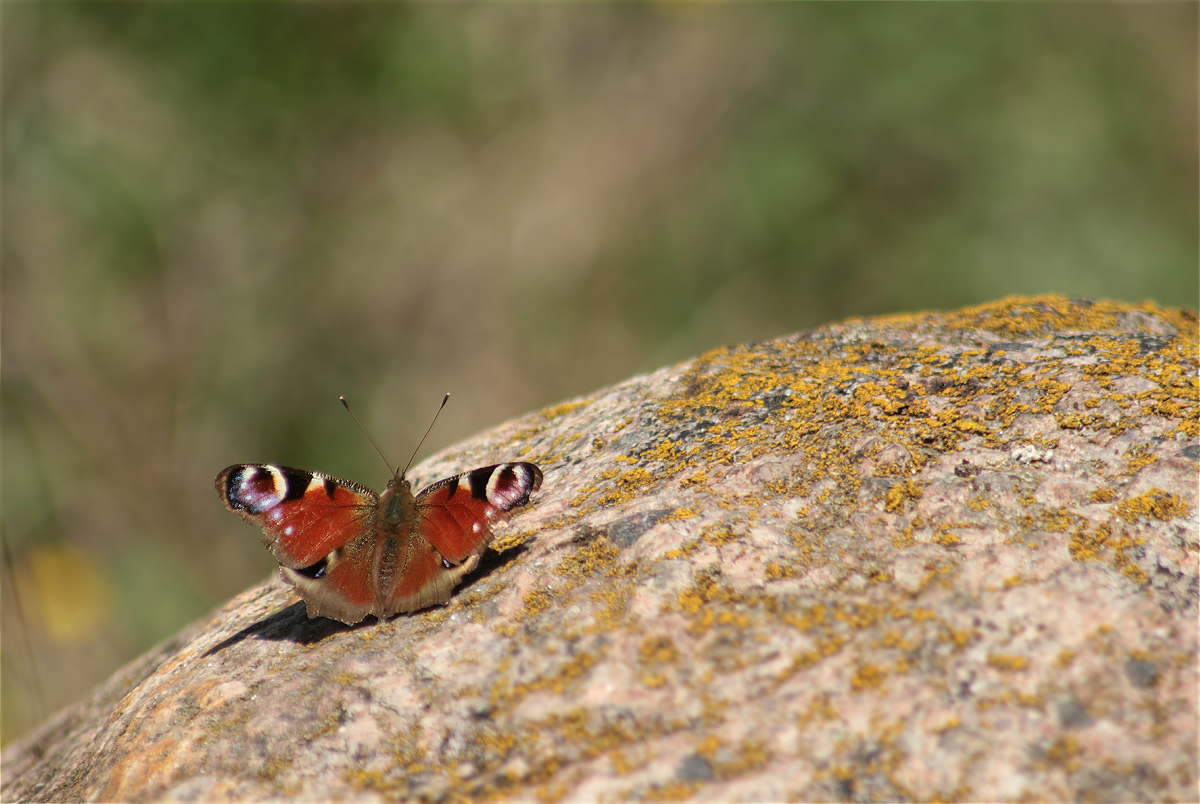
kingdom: Animalia
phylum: Arthropoda
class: Insecta
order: Lepidoptera
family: Nymphalidae
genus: Aglais
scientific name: Aglais io
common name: Peacock
